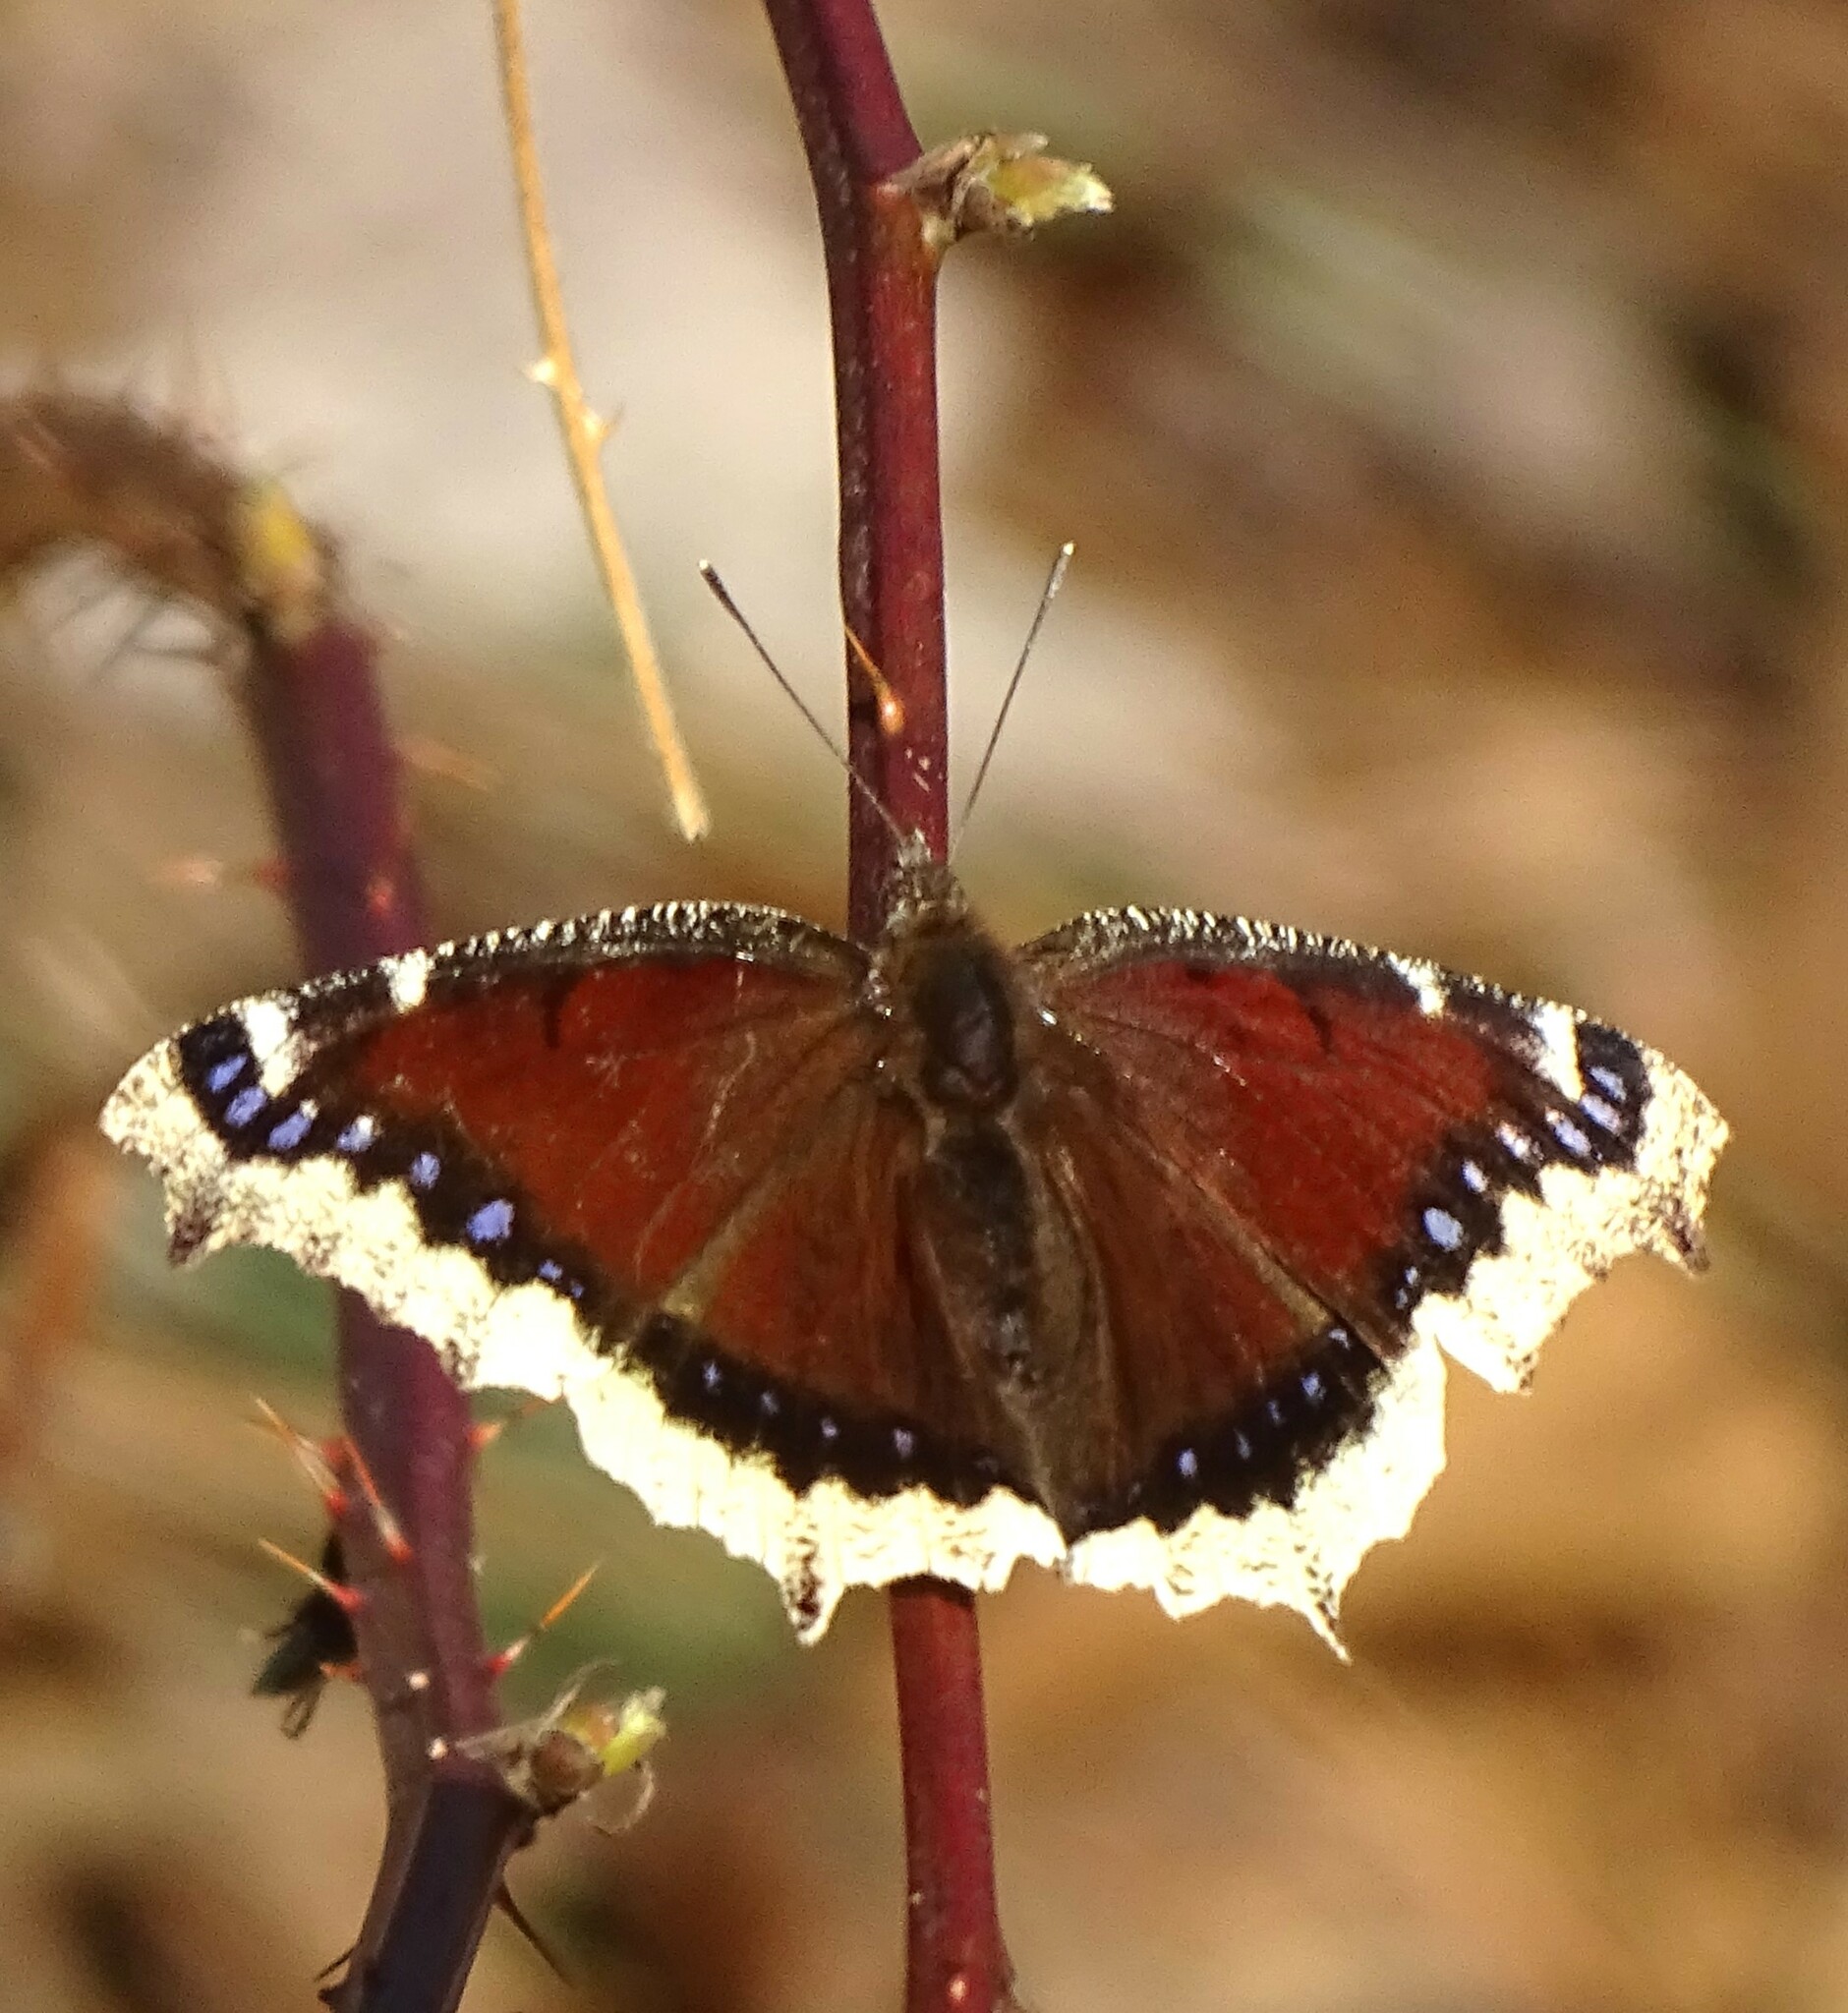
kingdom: Animalia
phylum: Arthropoda
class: Insecta
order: Lepidoptera
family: Nymphalidae
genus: Nymphalis
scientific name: Nymphalis antiopa
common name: Camberwell beauty
